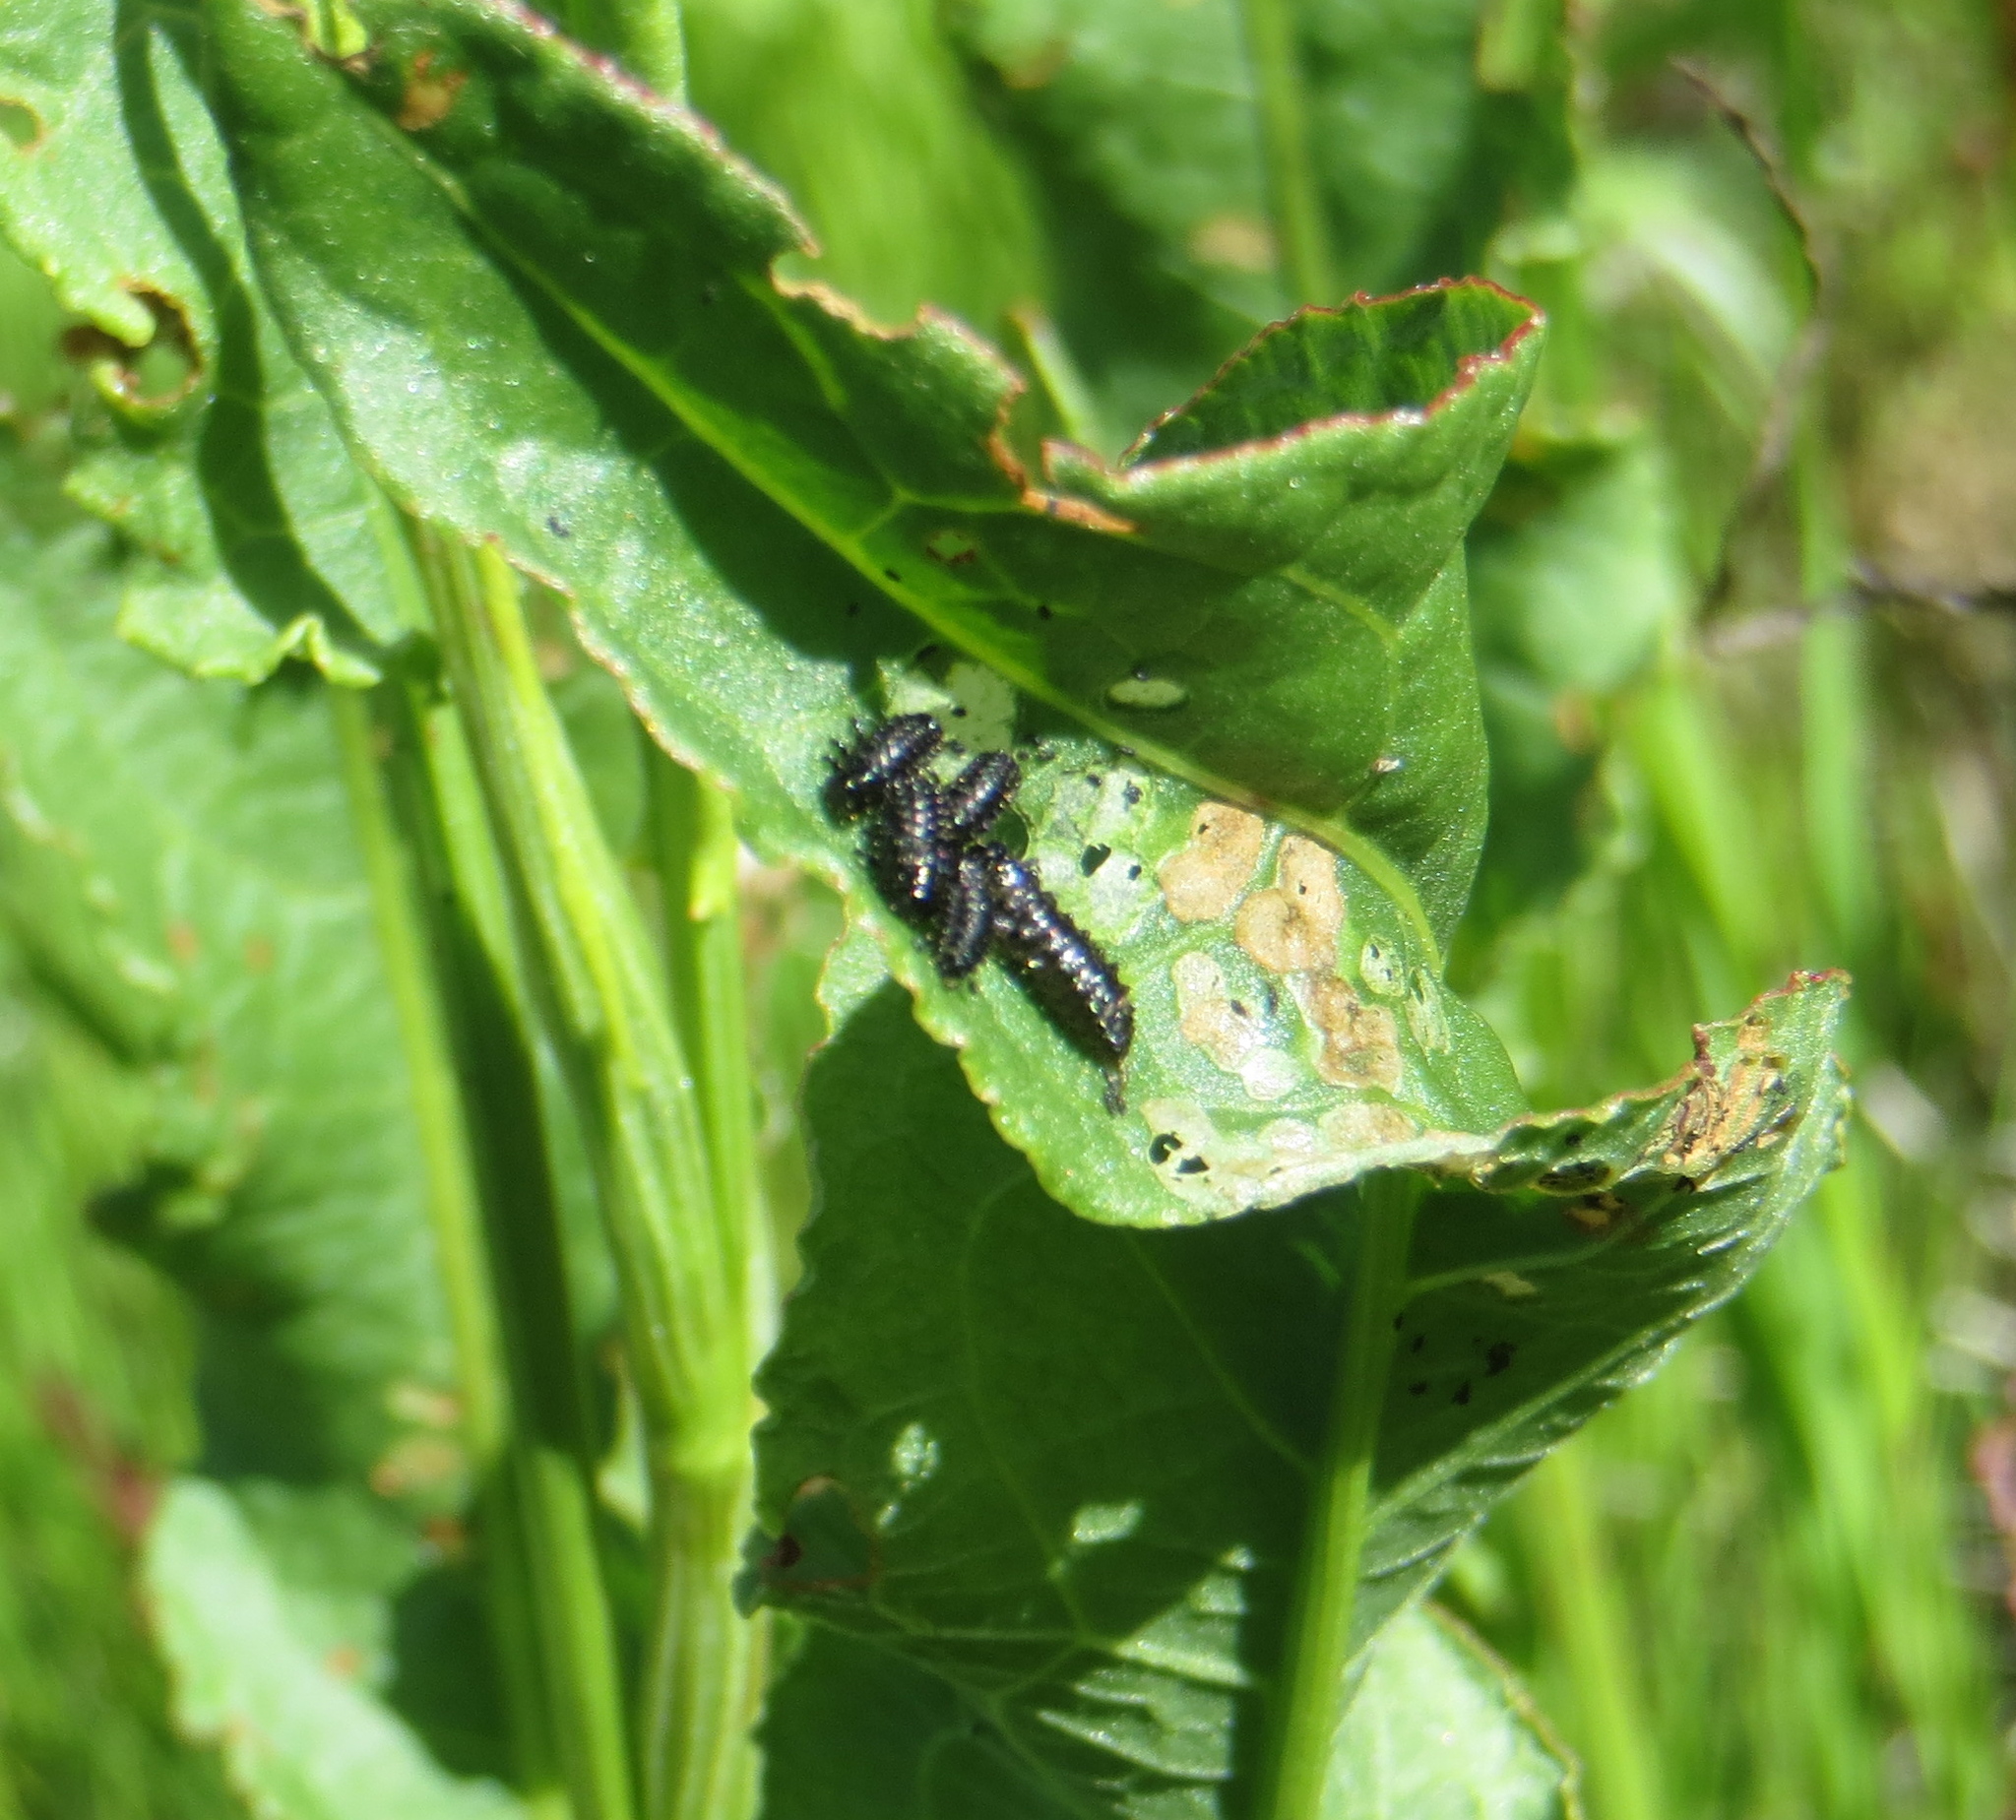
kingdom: Animalia
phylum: Arthropoda
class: Insecta
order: Coleoptera
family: Chrysomelidae
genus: Gastrophysa
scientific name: Gastrophysa cyanea
